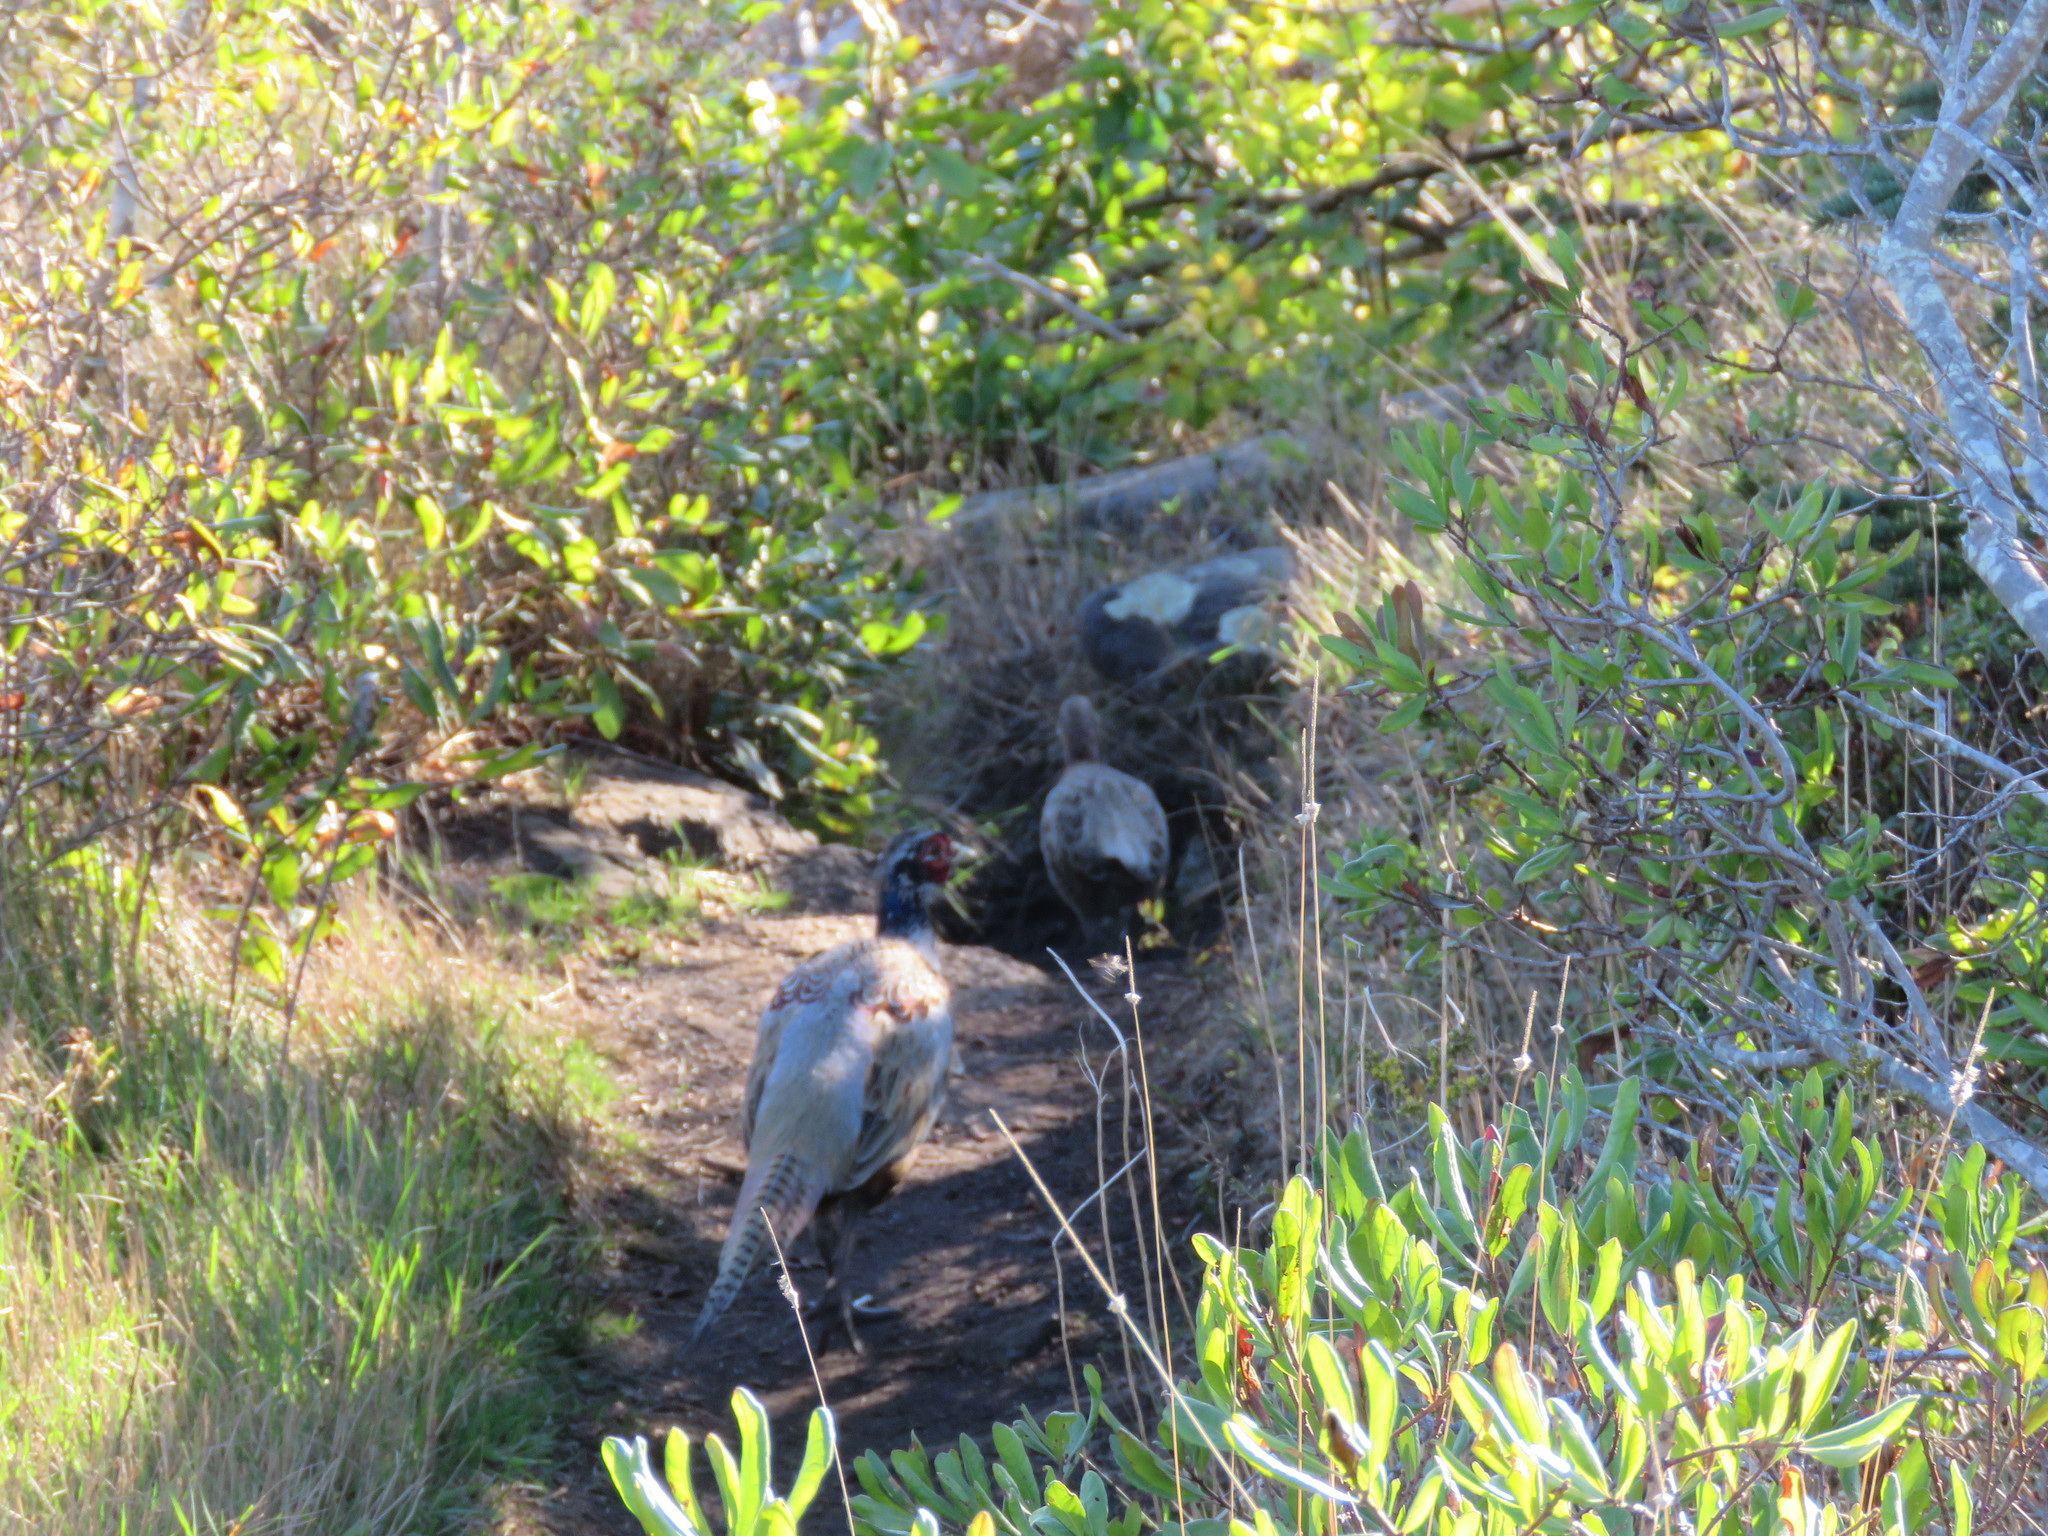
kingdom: Animalia
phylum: Chordata
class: Aves
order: Galliformes
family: Phasianidae
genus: Phasianus
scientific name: Phasianus colchicus
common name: Common pheasant
